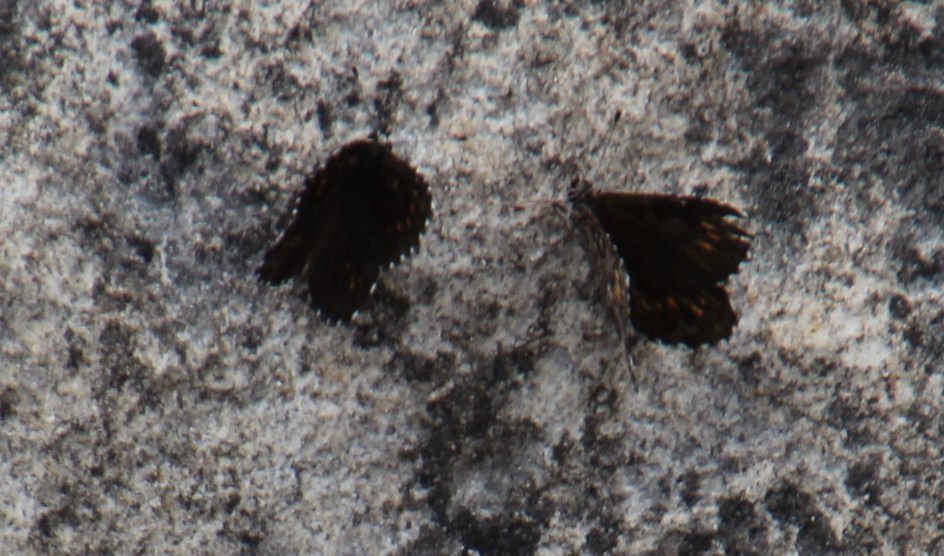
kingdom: Animalia
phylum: Arthropoda
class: Insecta
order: Lepidoptera
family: Lycaenidae
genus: Durbaniopsis
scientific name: Durbaniopsis saga
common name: Boland rocksitter
